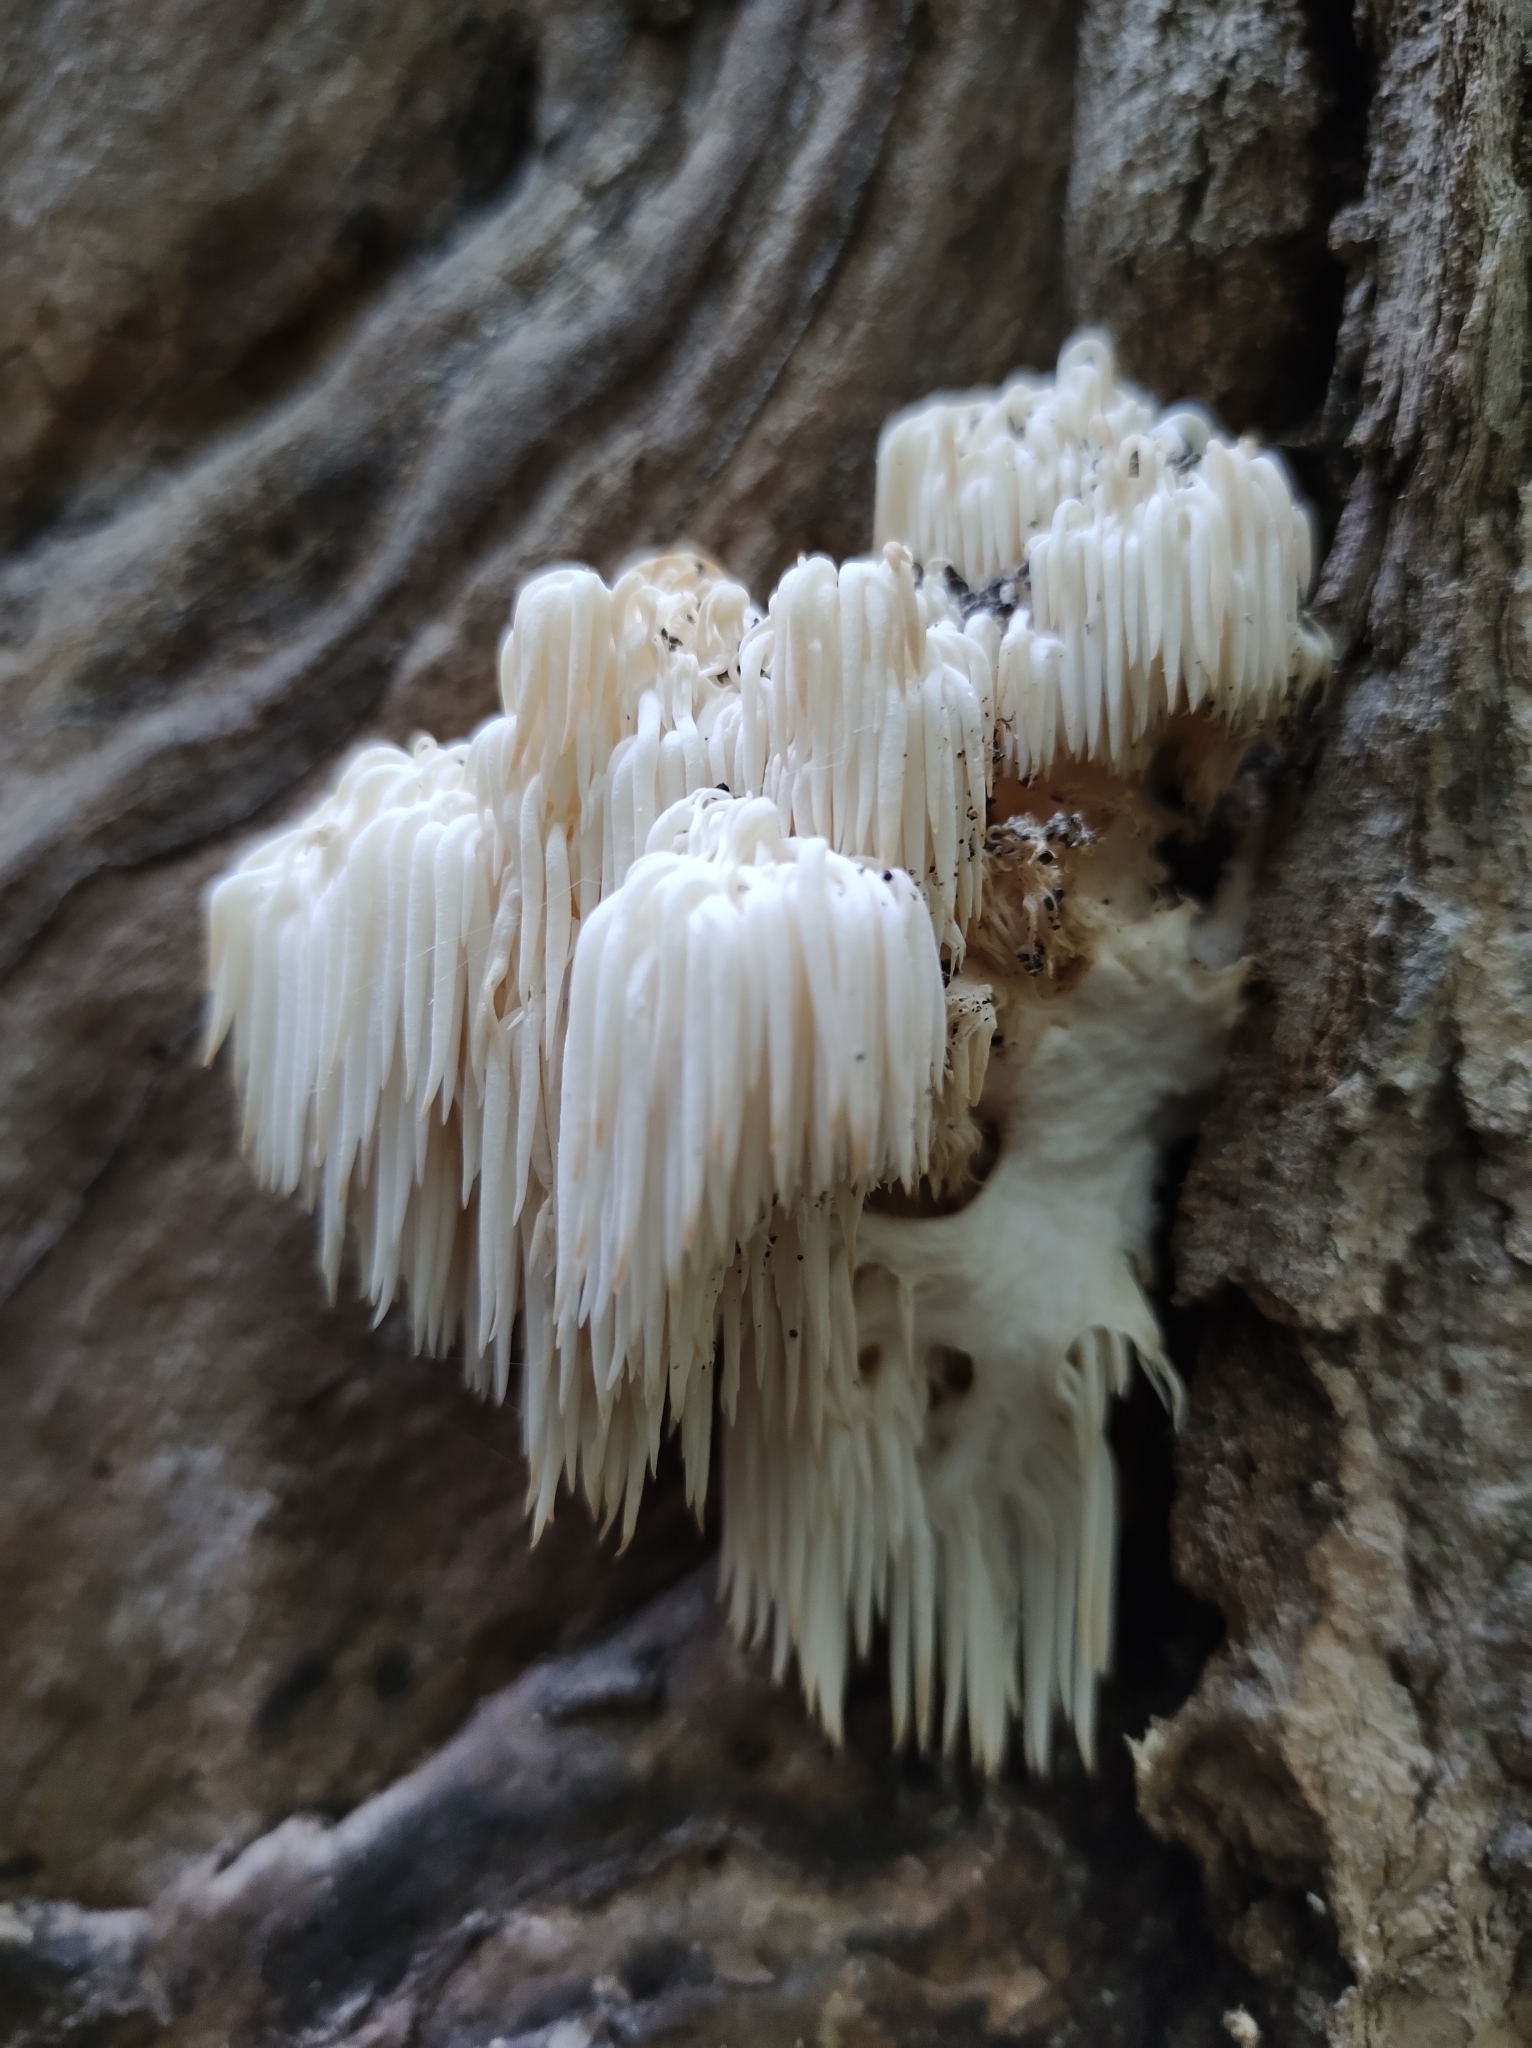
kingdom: Fungi
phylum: Basidiomycota
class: Agaricomycetes
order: Russulales
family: Hericiaceae
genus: Hericium
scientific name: Hericium americanum
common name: Bear's head tooth
